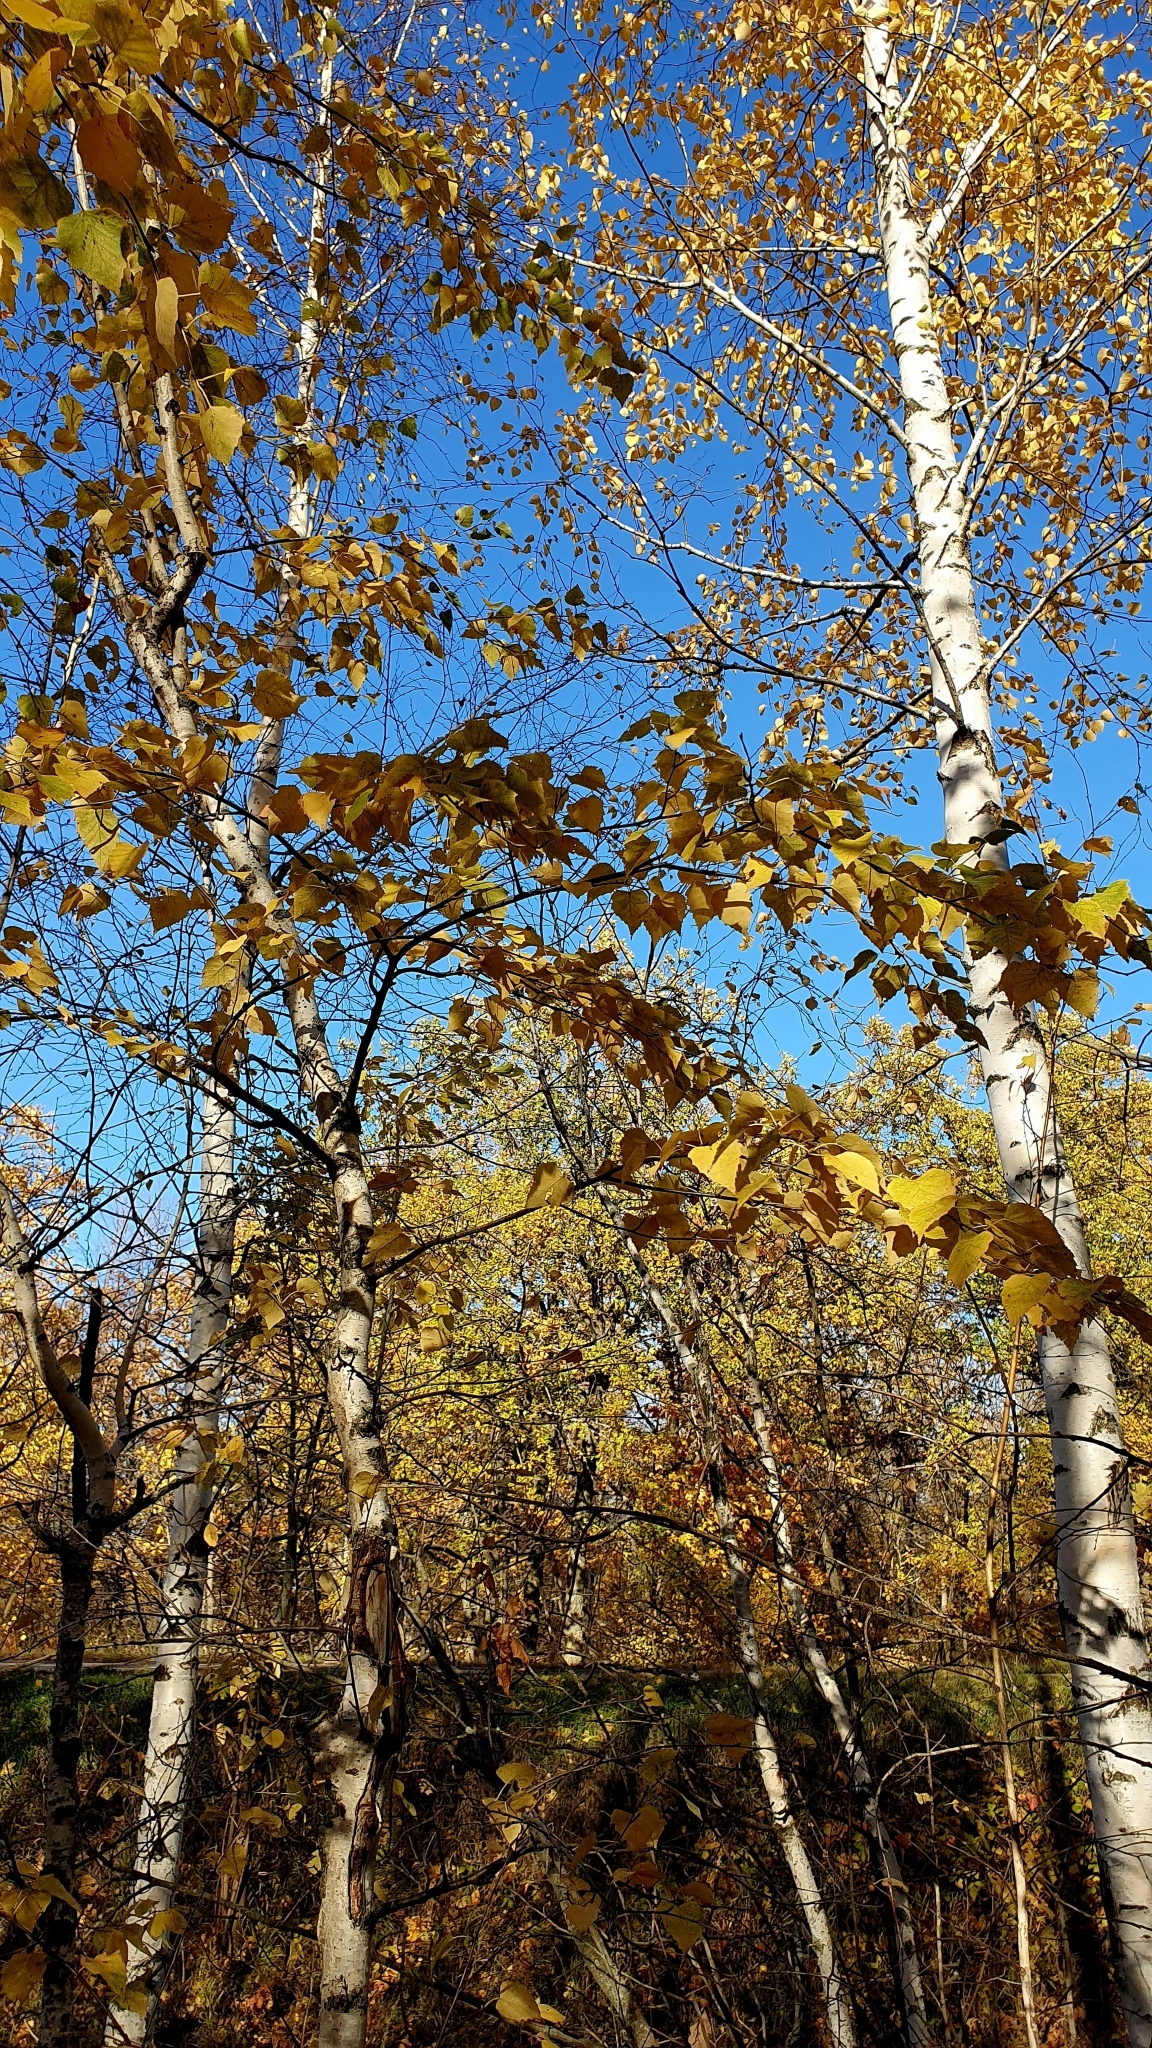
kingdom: Plantae
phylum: Tracheophyta
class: Magnoliopsida
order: Fagales
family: Betulaceae
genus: Betula
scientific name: Betula pendula
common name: Silver birch
